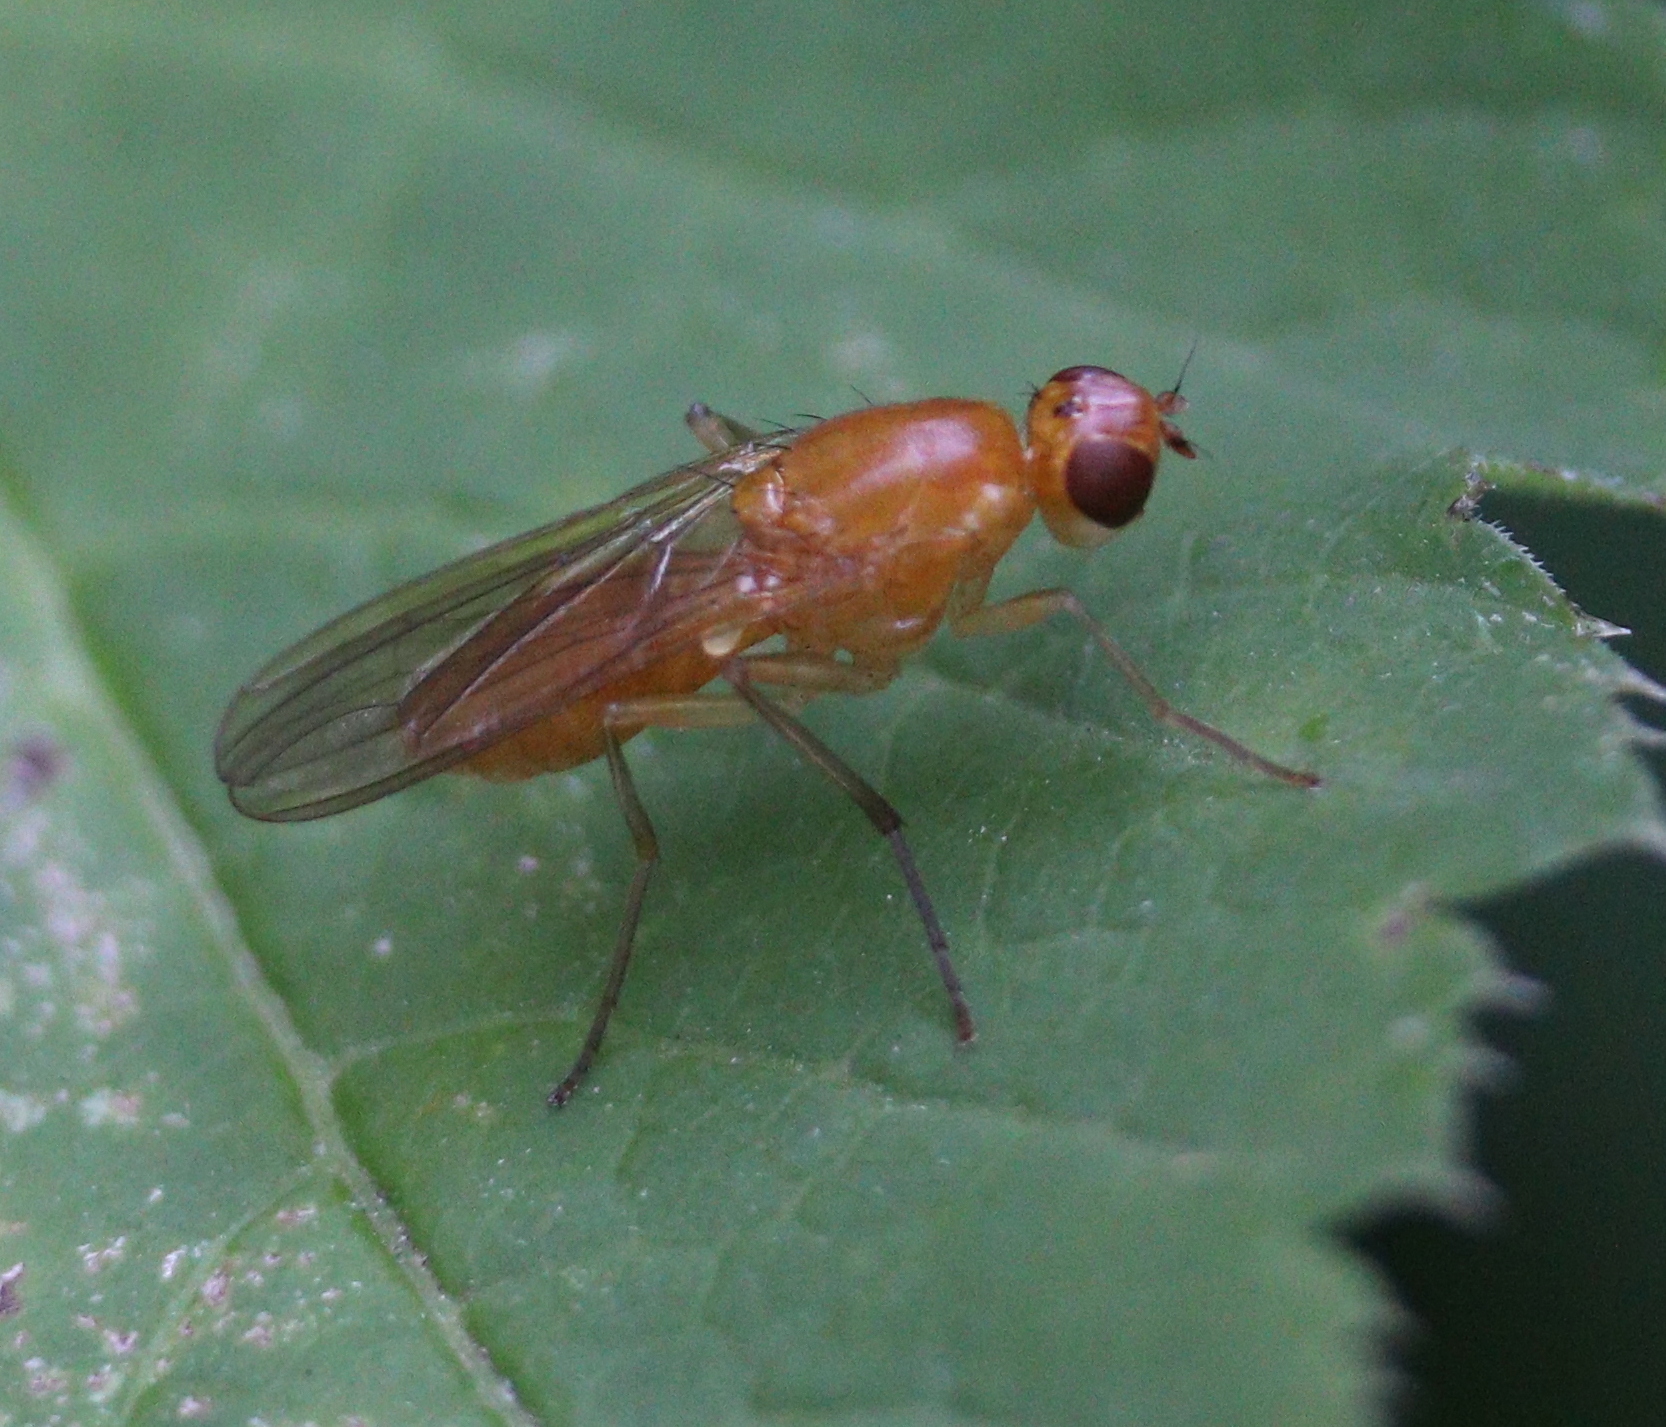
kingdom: Animalia
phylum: Arthropoda
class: Insecta
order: Diptera
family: Psilidae
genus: Psila
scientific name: Psila fimetaria
